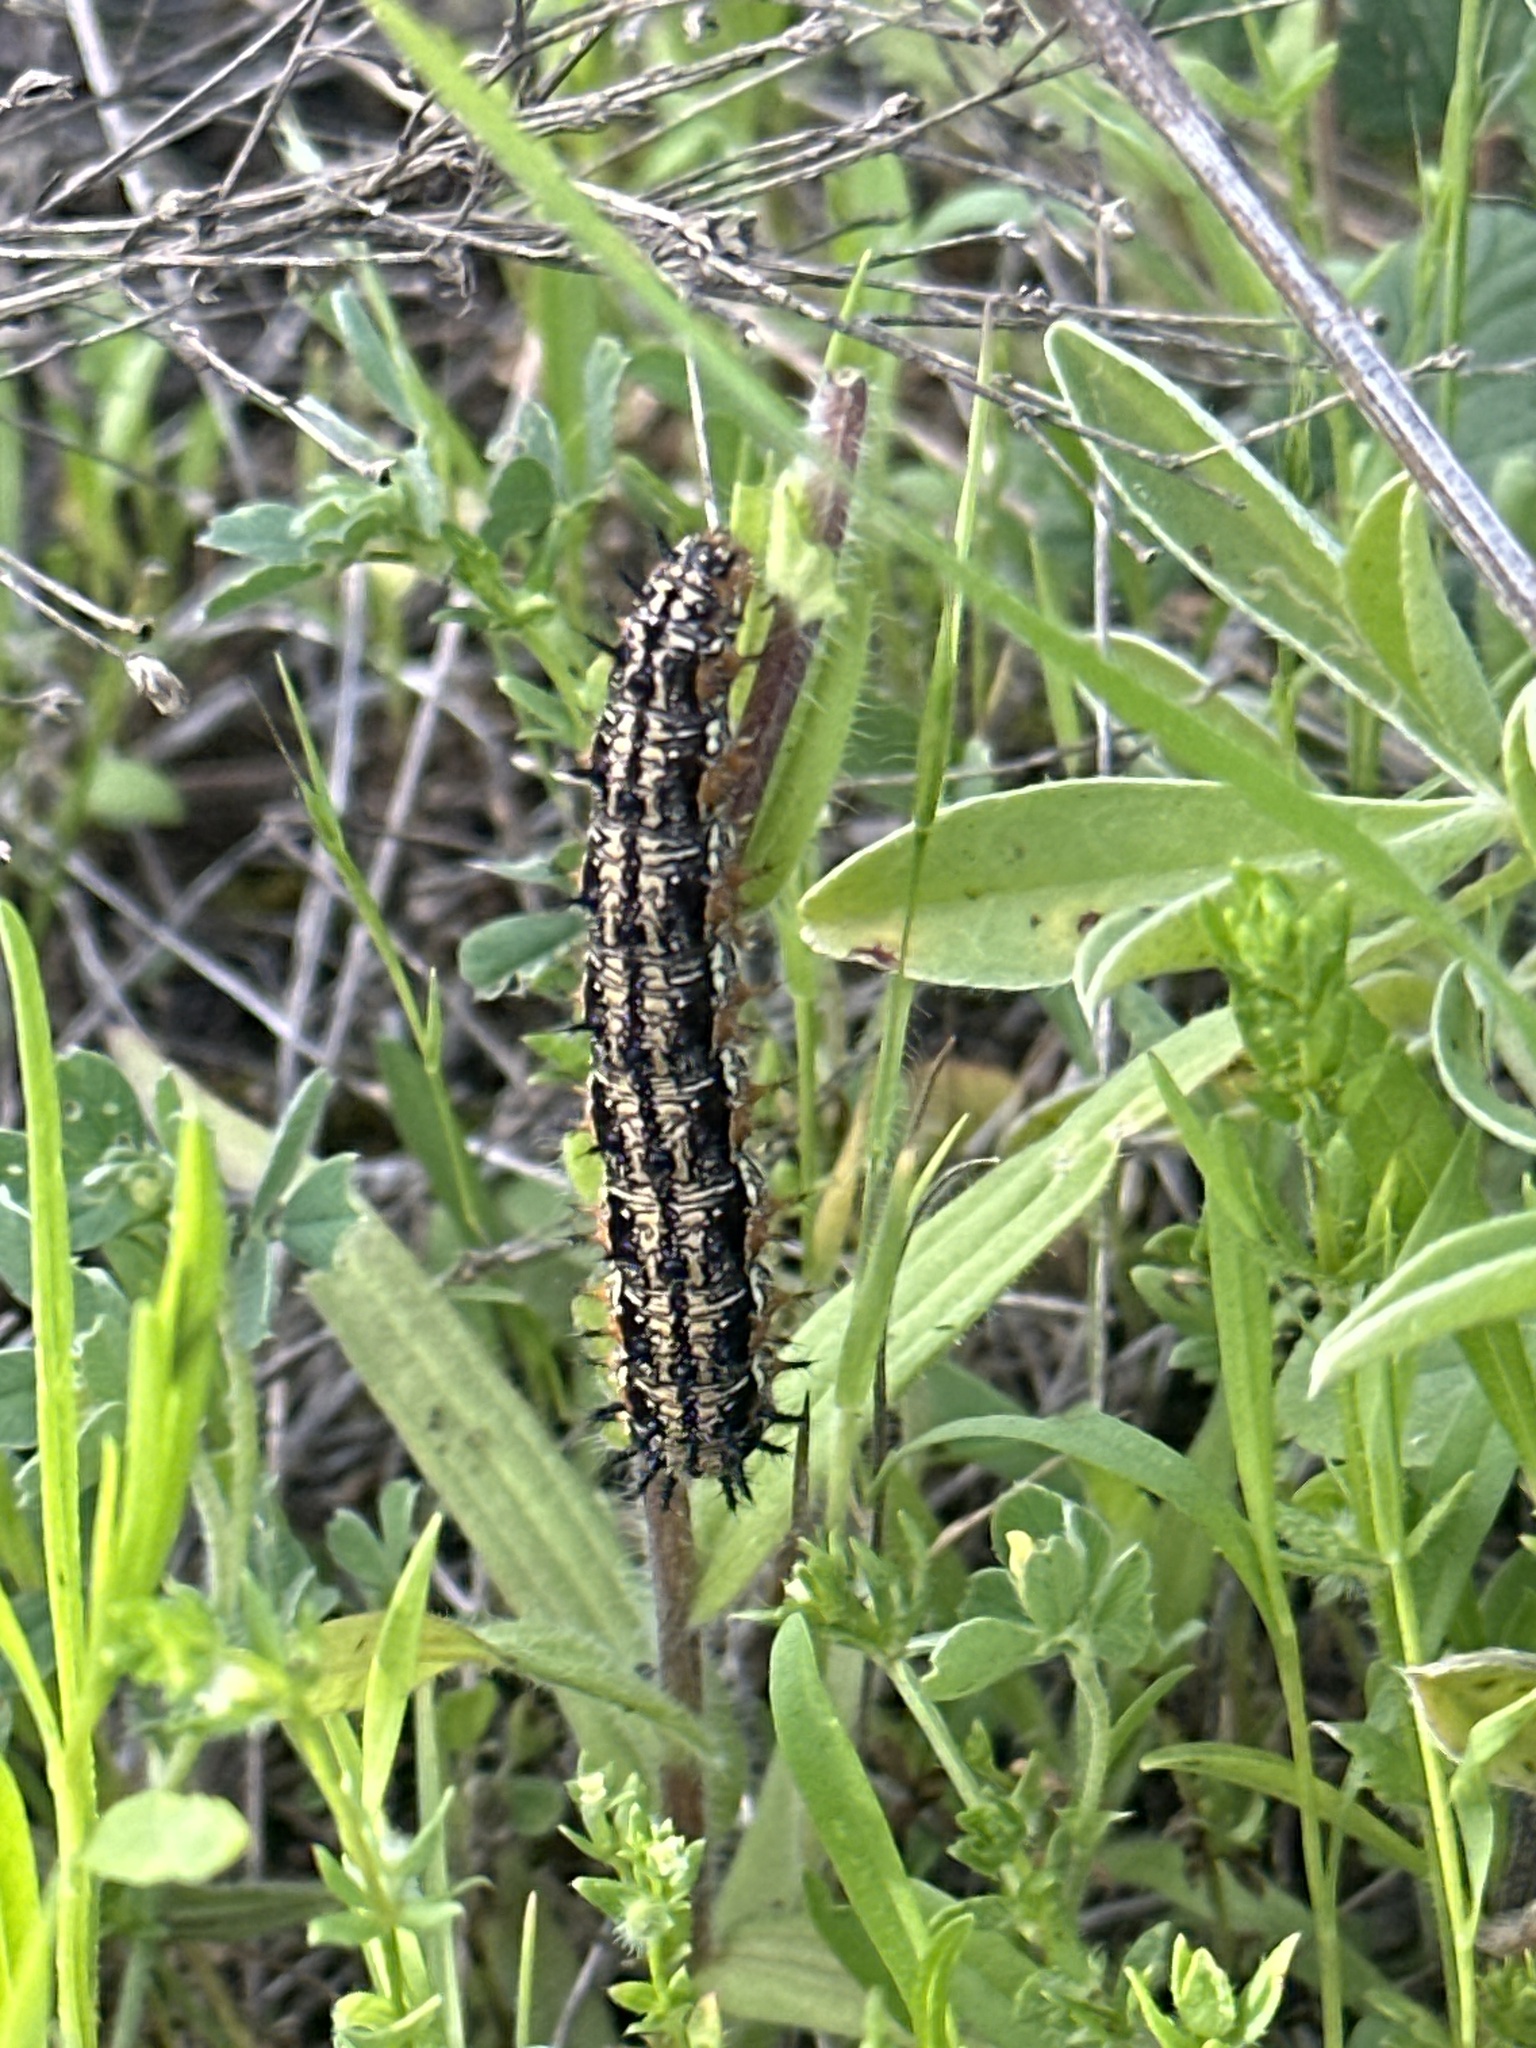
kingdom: Animalia
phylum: Arthropoda
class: Insecta
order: Lepidoptera
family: Nymphalidae
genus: Junonia
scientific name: Junonia coenia
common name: Common buckeye
